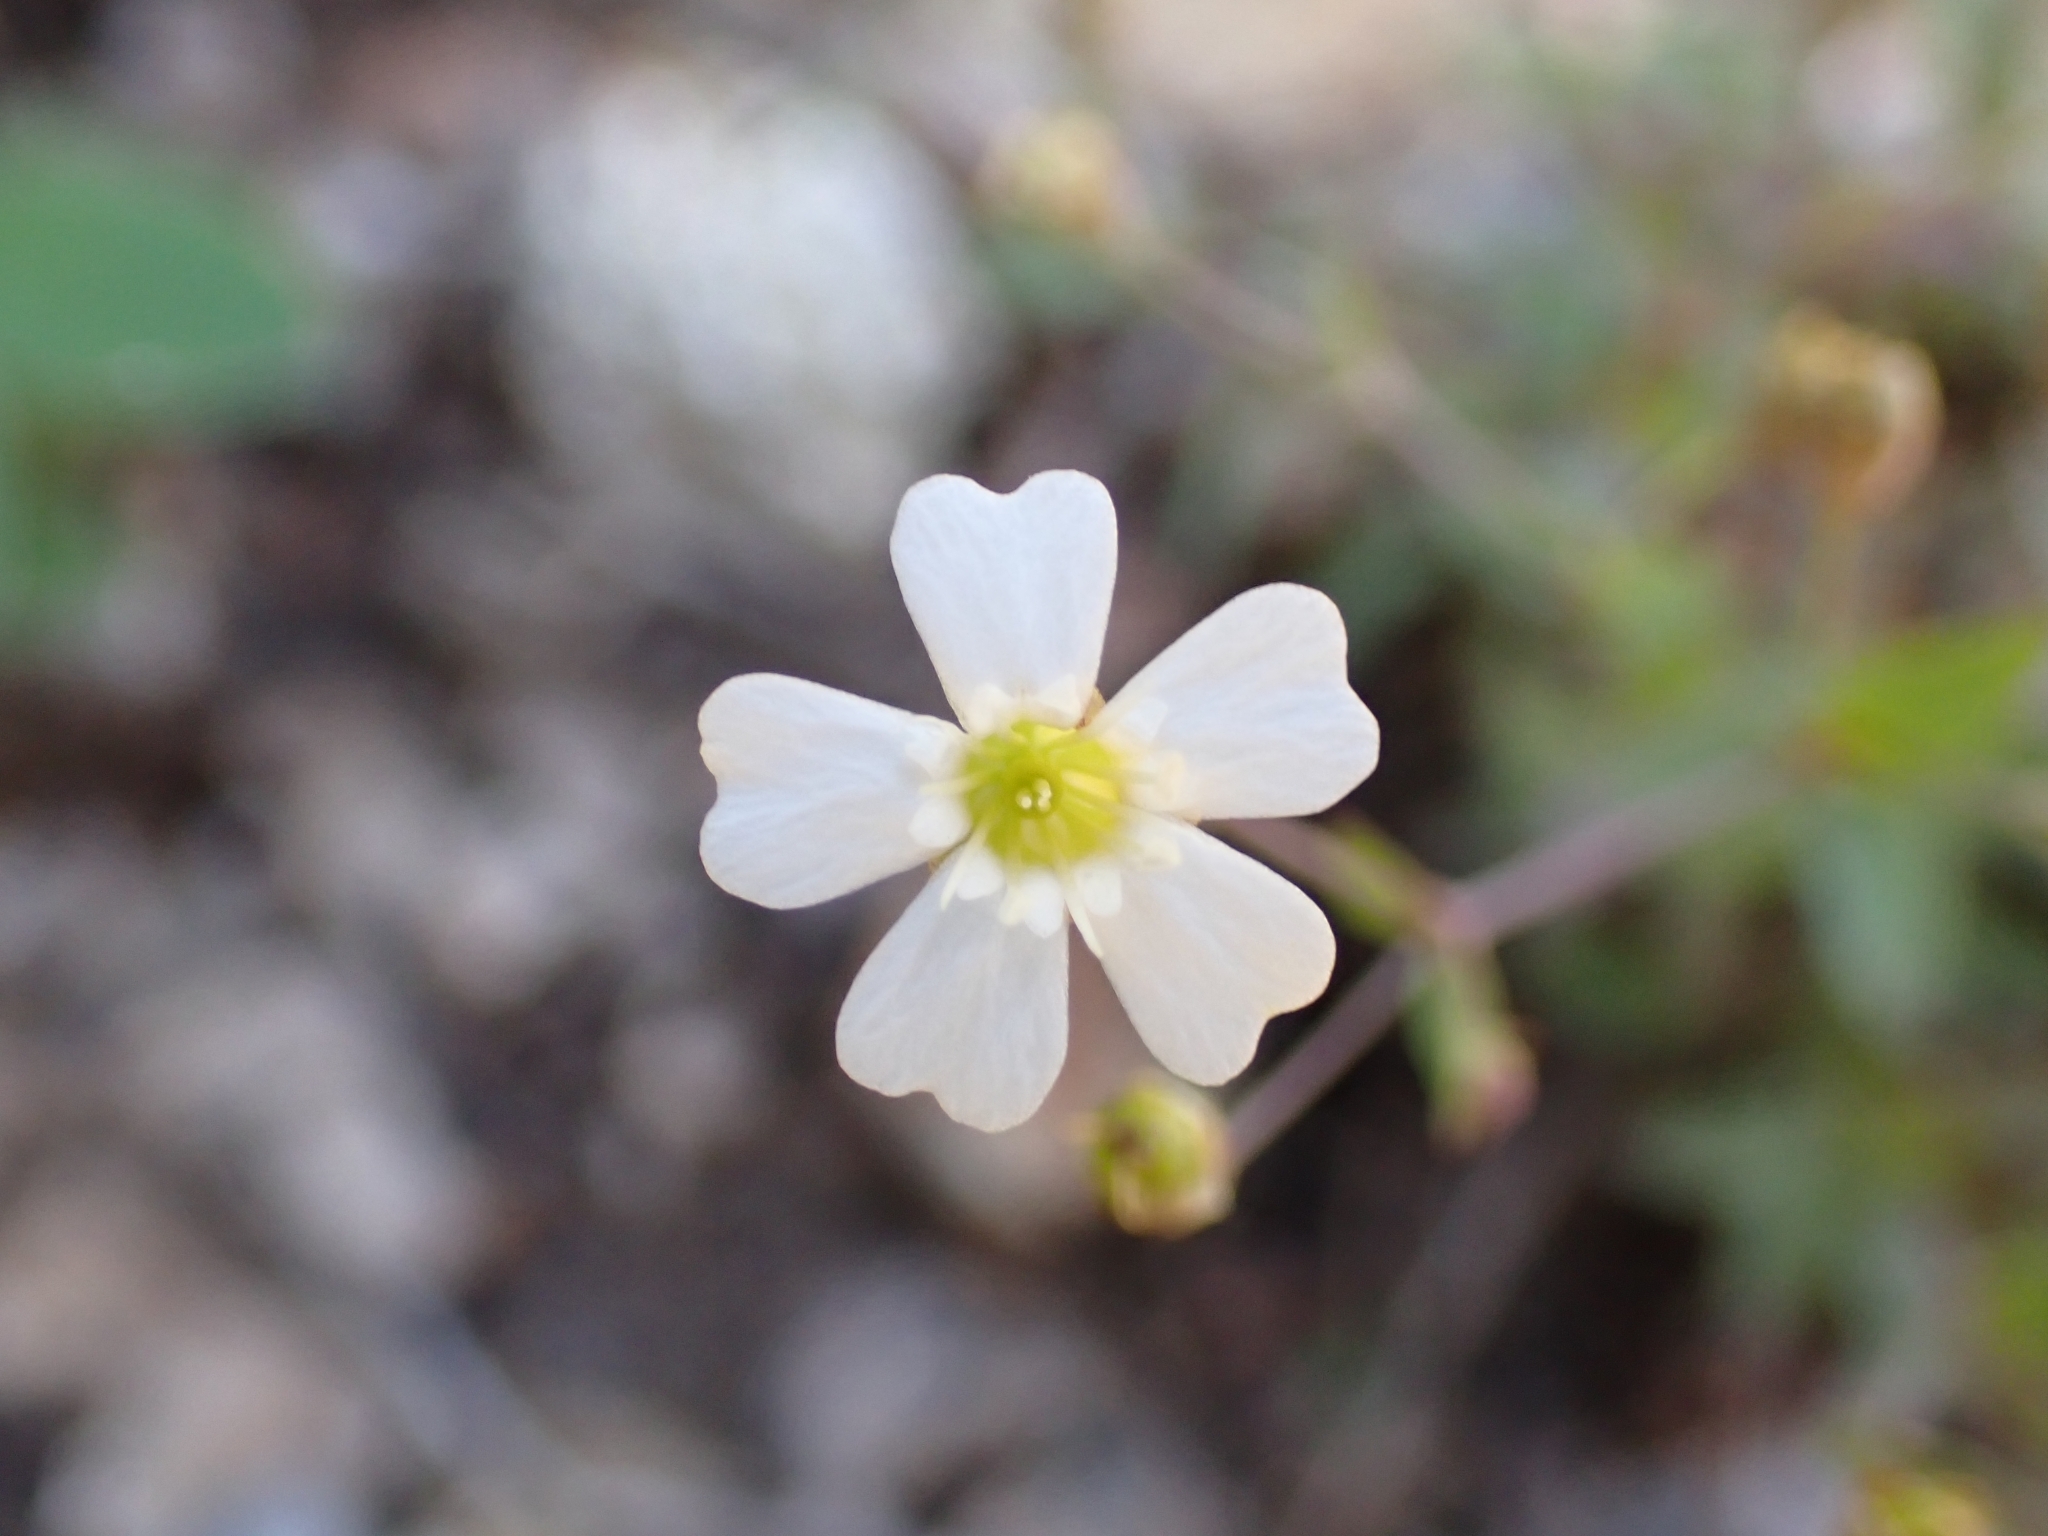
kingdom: Plantae
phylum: Tracheophyta
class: Magnoliopsida
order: Caryophyllales
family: Caryophyllaceae
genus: Atocion
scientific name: Atocion rupestre
